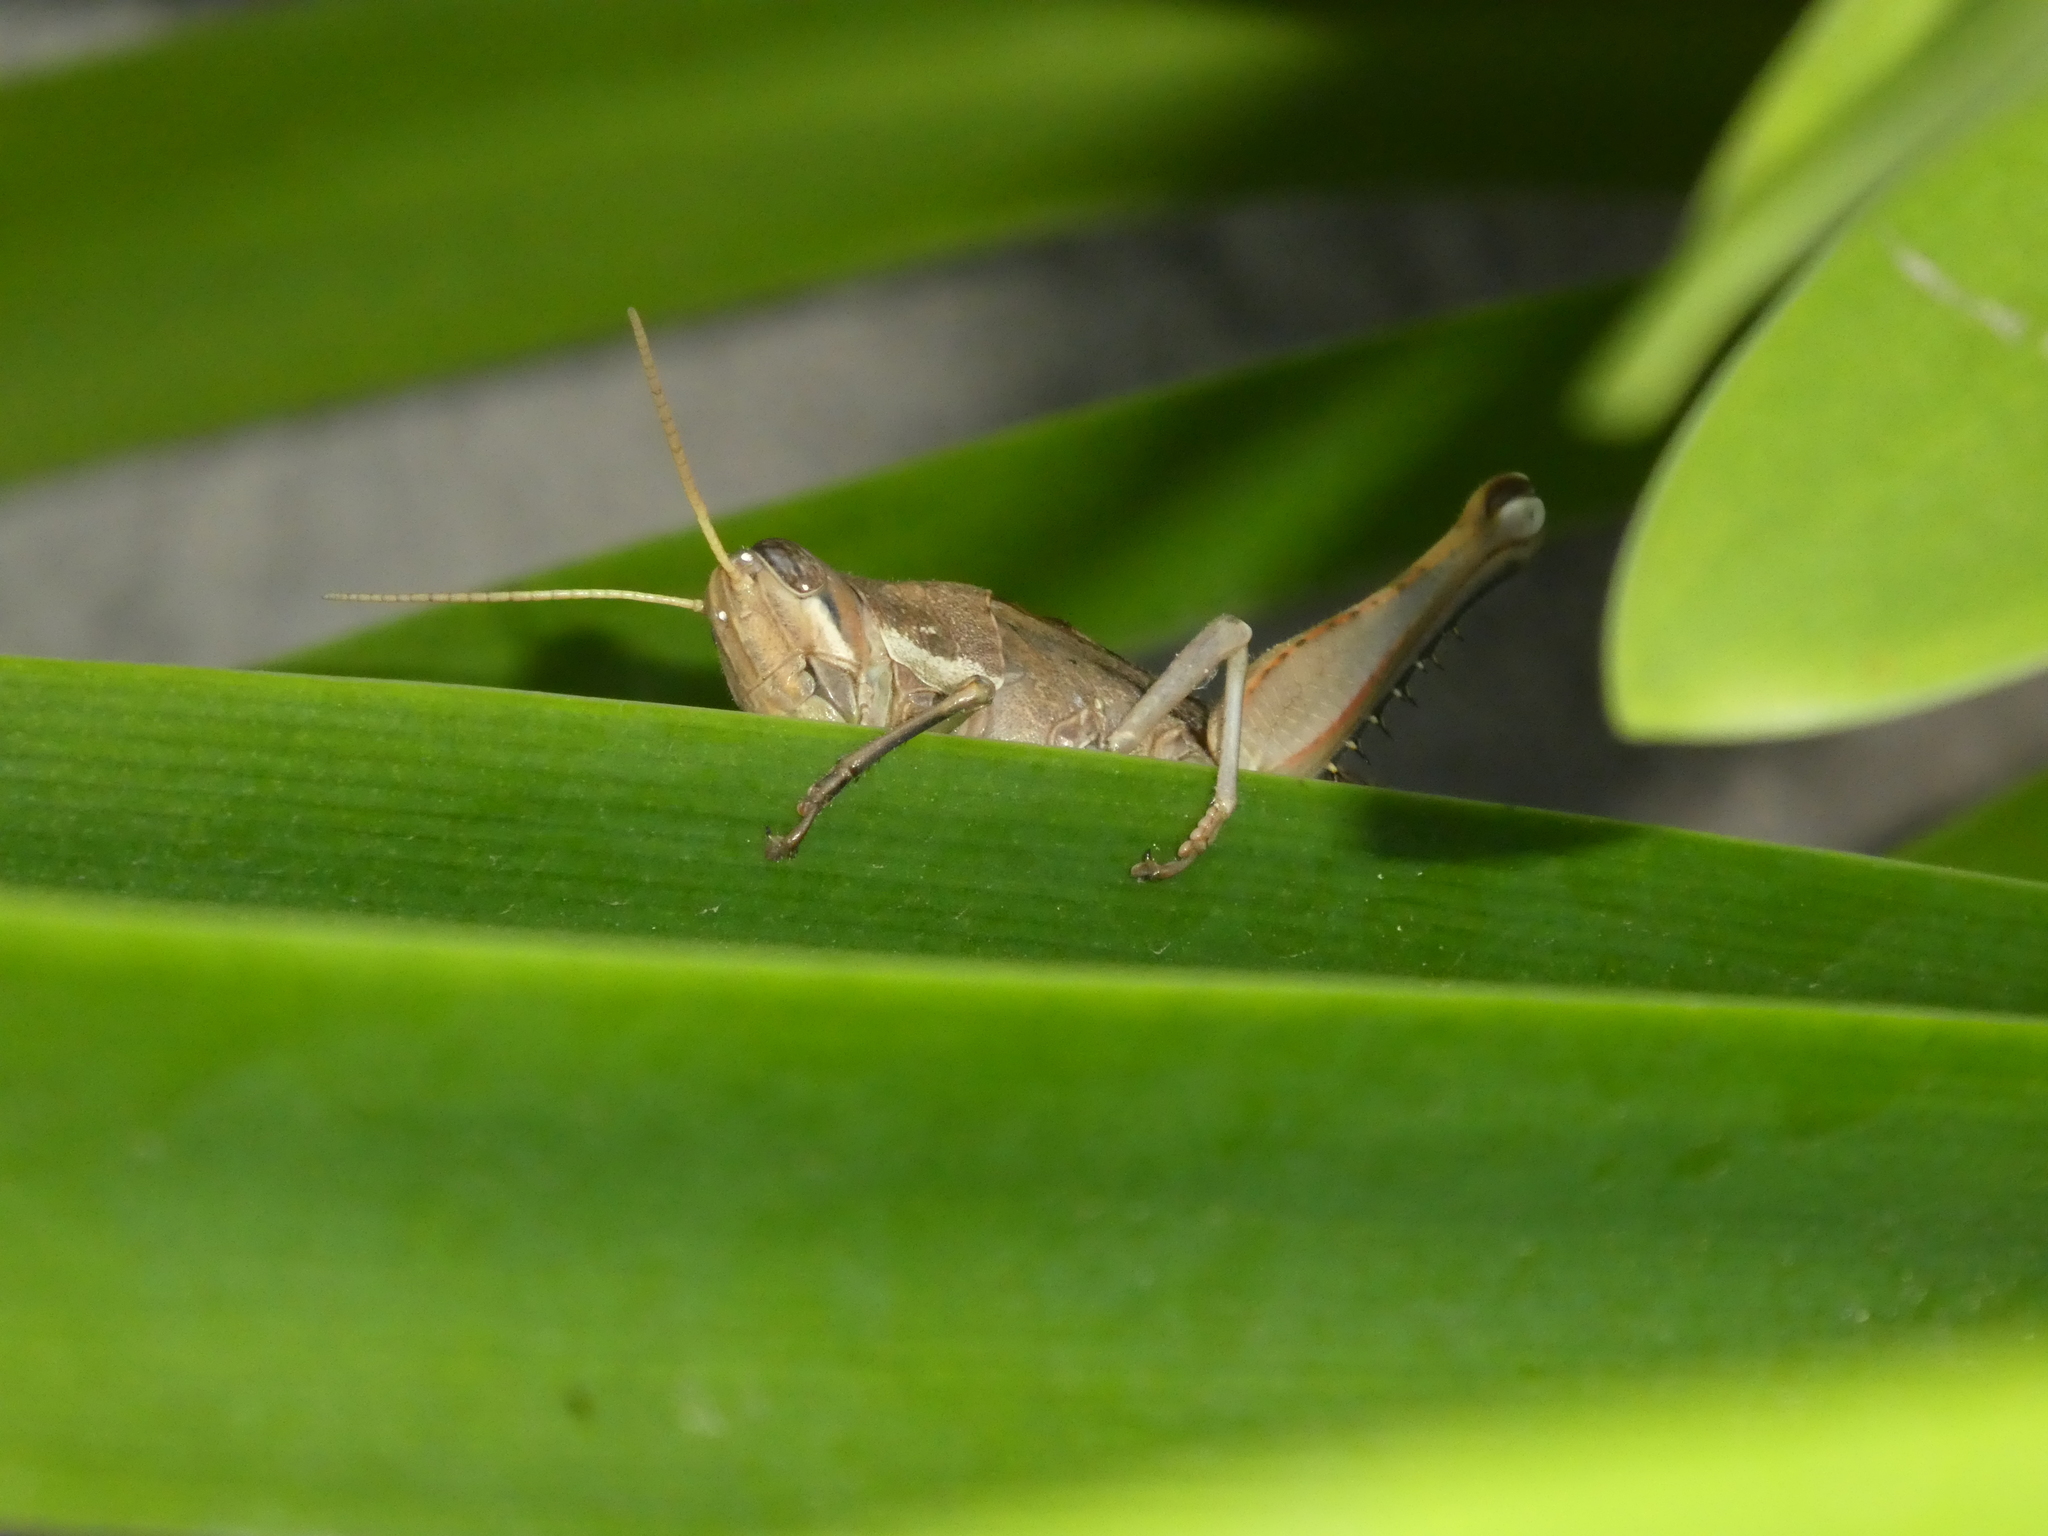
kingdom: Animalia
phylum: Arthropoda
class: Insecta
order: Orthoptera
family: Acrididae
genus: Schistocerca
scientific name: Schistocerca nitens
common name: Vagrant grasshopper
